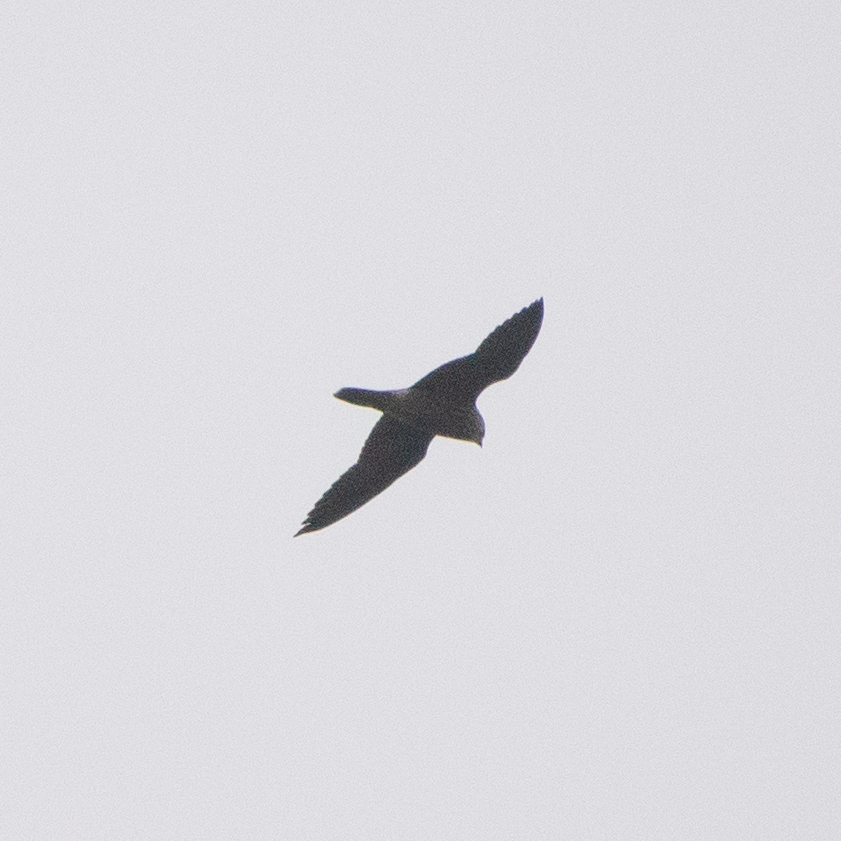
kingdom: Animalia
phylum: Chordata
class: Aves
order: Falconiformes
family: Falconidae
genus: Falco
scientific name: Falco peregrinus
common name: Peregrine falcon
